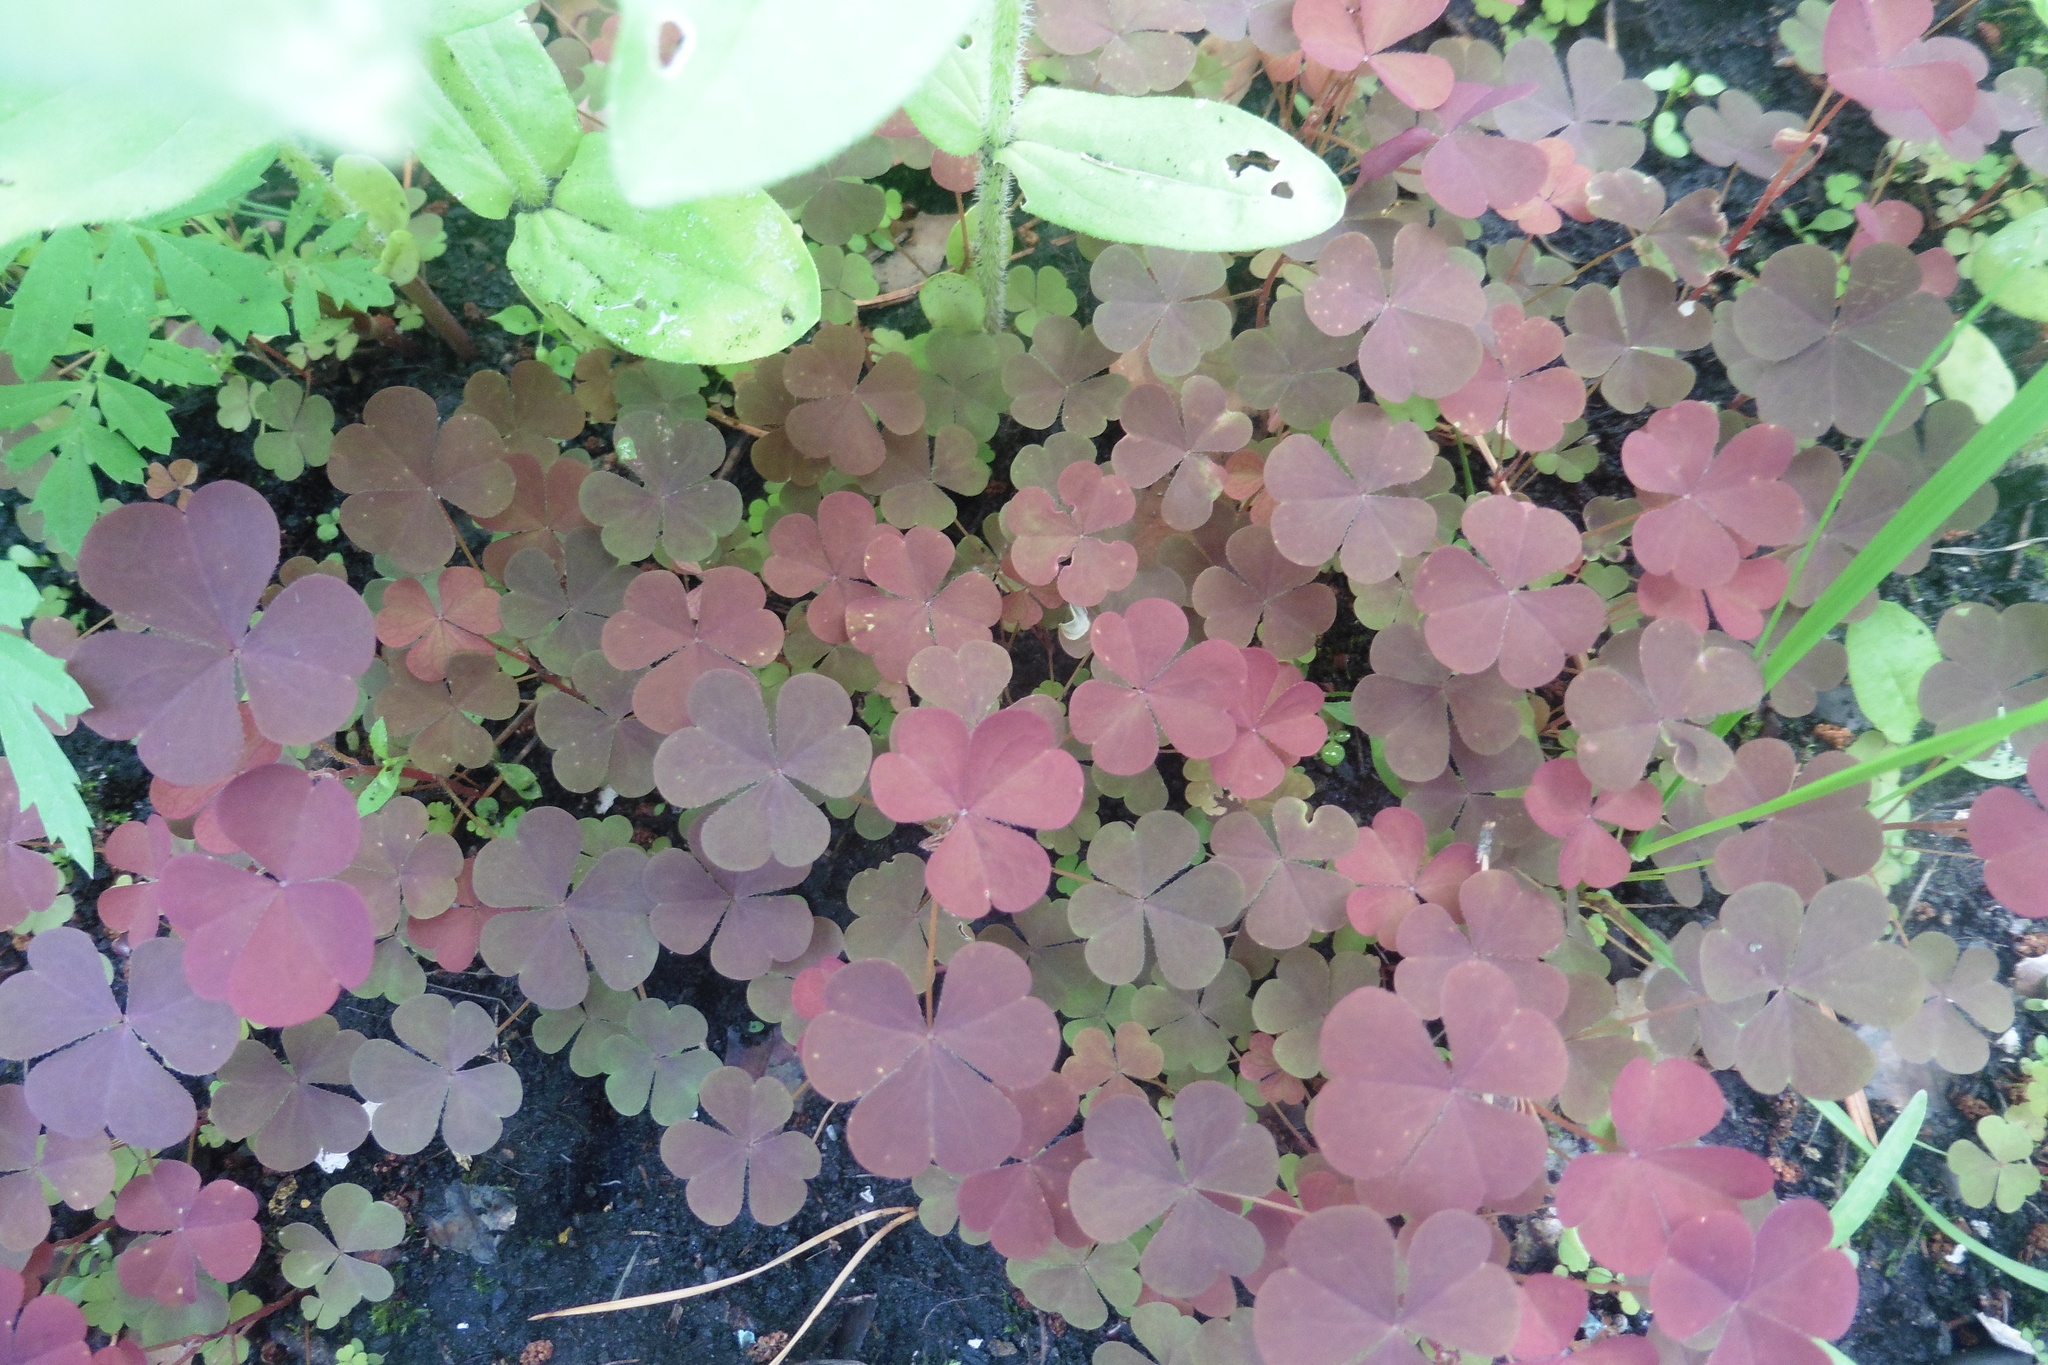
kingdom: Plantae
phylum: Tracheophyta
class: Magnoliopsida
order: Oxalidales
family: Oxalidaceae
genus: Oxalis
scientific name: Oxalis stricta
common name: Upright yellow-sorrel
